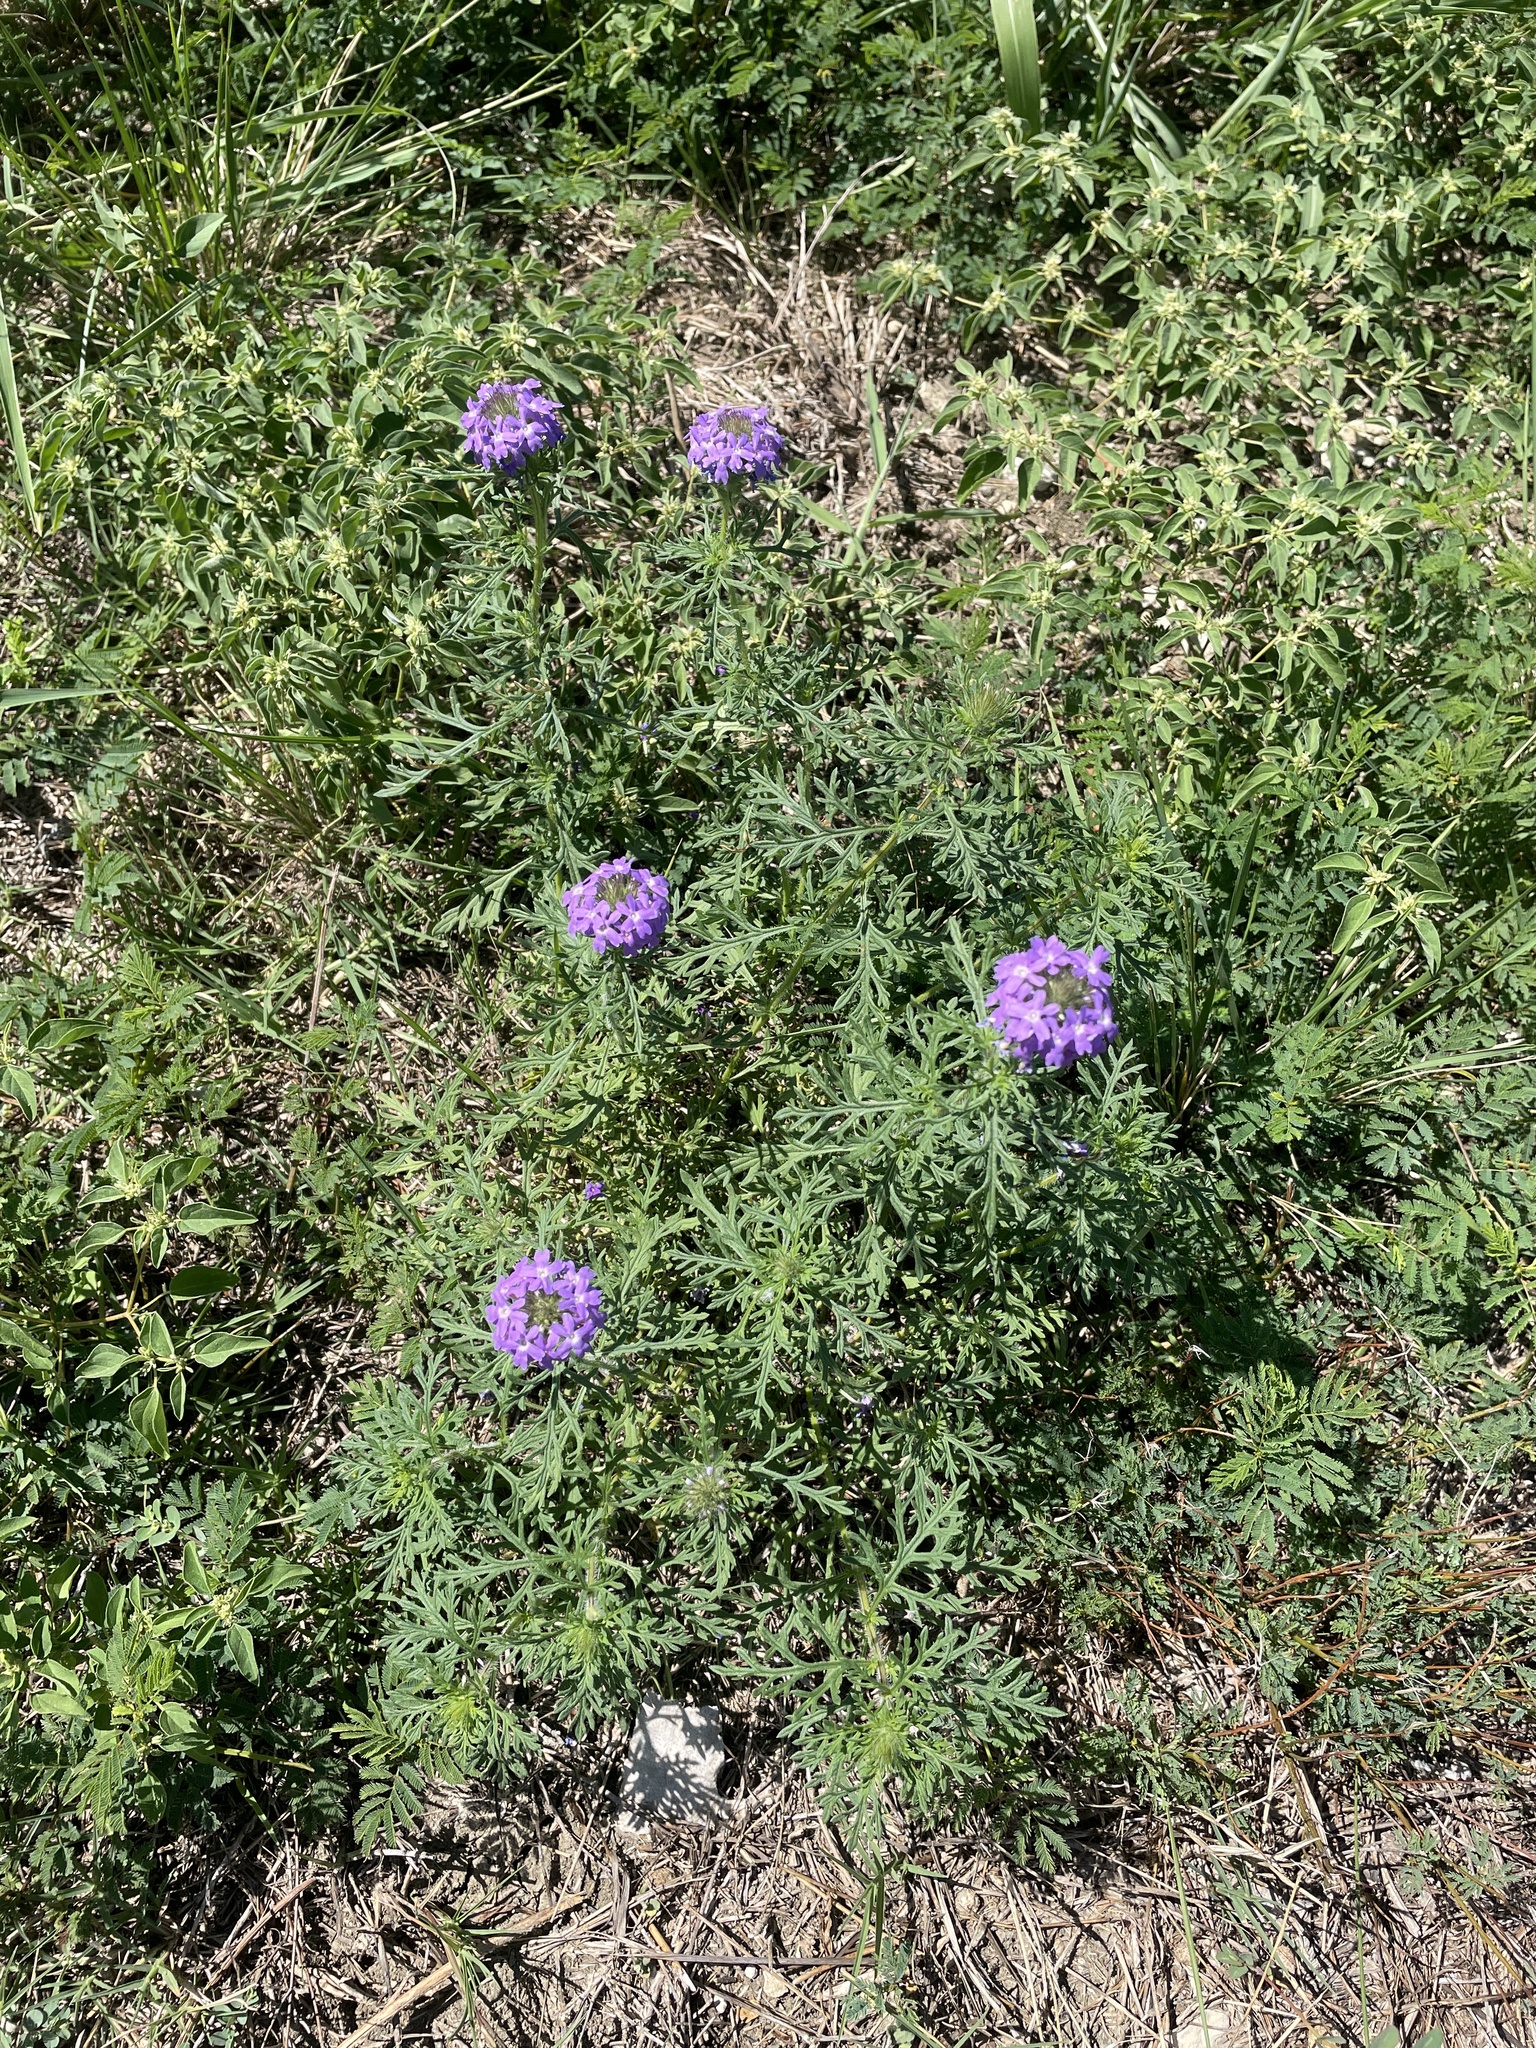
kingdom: Plantae
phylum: Tracheophyta
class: Magnoliopsida
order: Lamiales
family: Verbenaceae
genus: Verbena
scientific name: Verbena bipinnatifida
